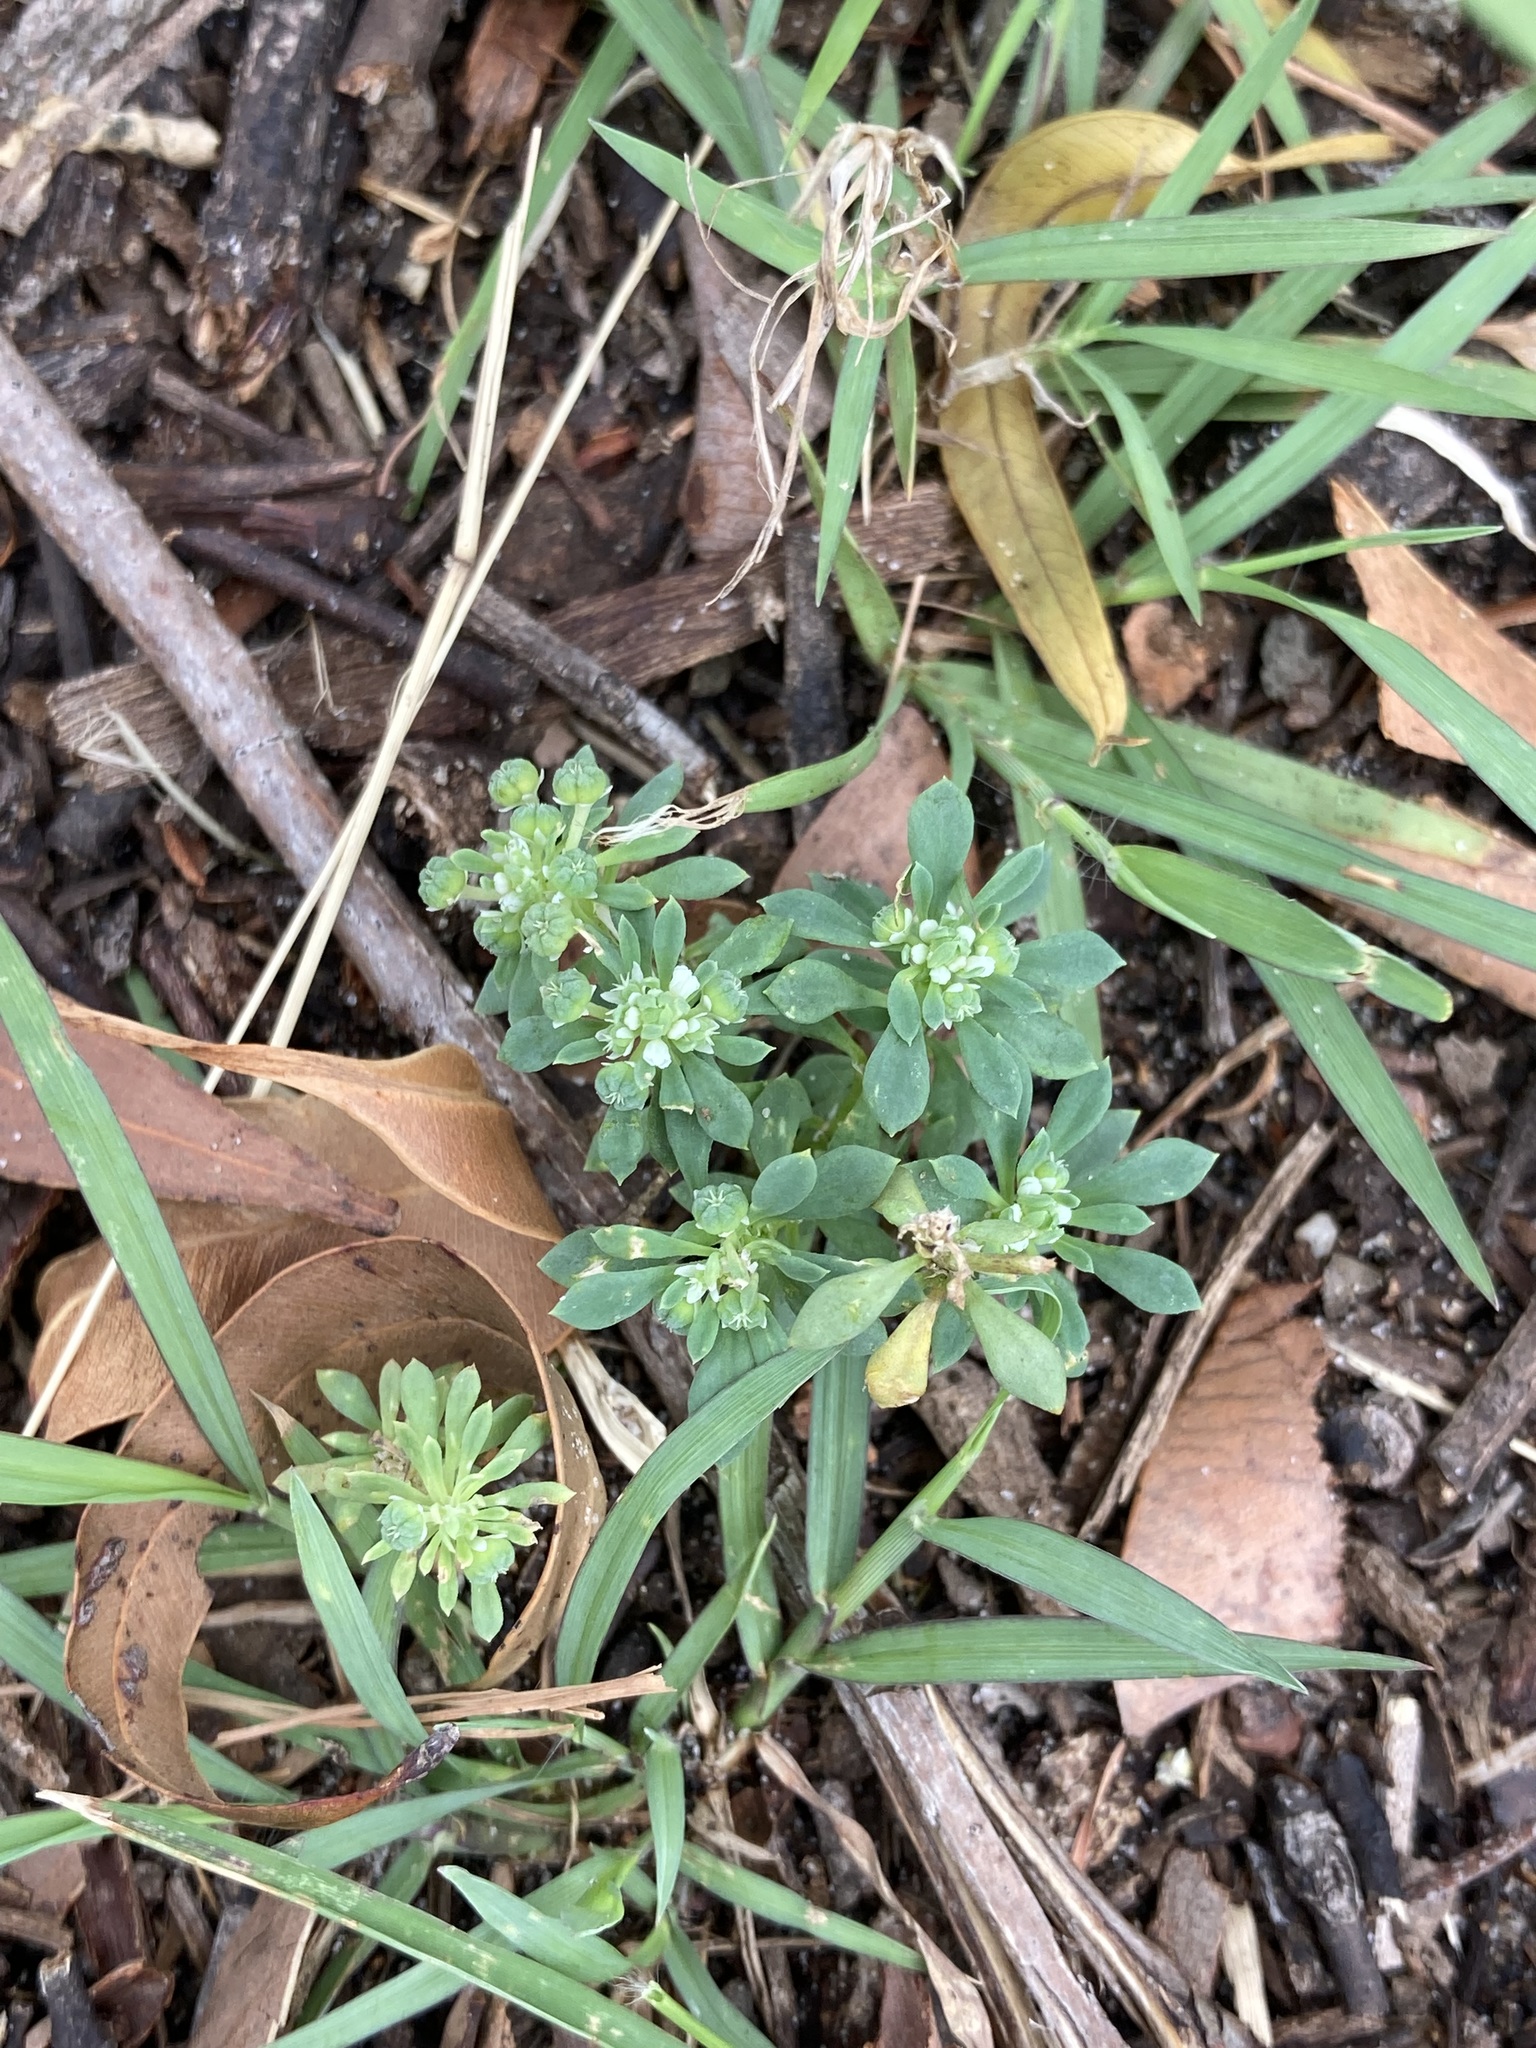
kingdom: Plantae
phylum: Tracheophyta
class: Magnoliopsida
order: Malpighiales
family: Phyllanthaceae
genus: Poranthera
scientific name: Poranthera microphylla
